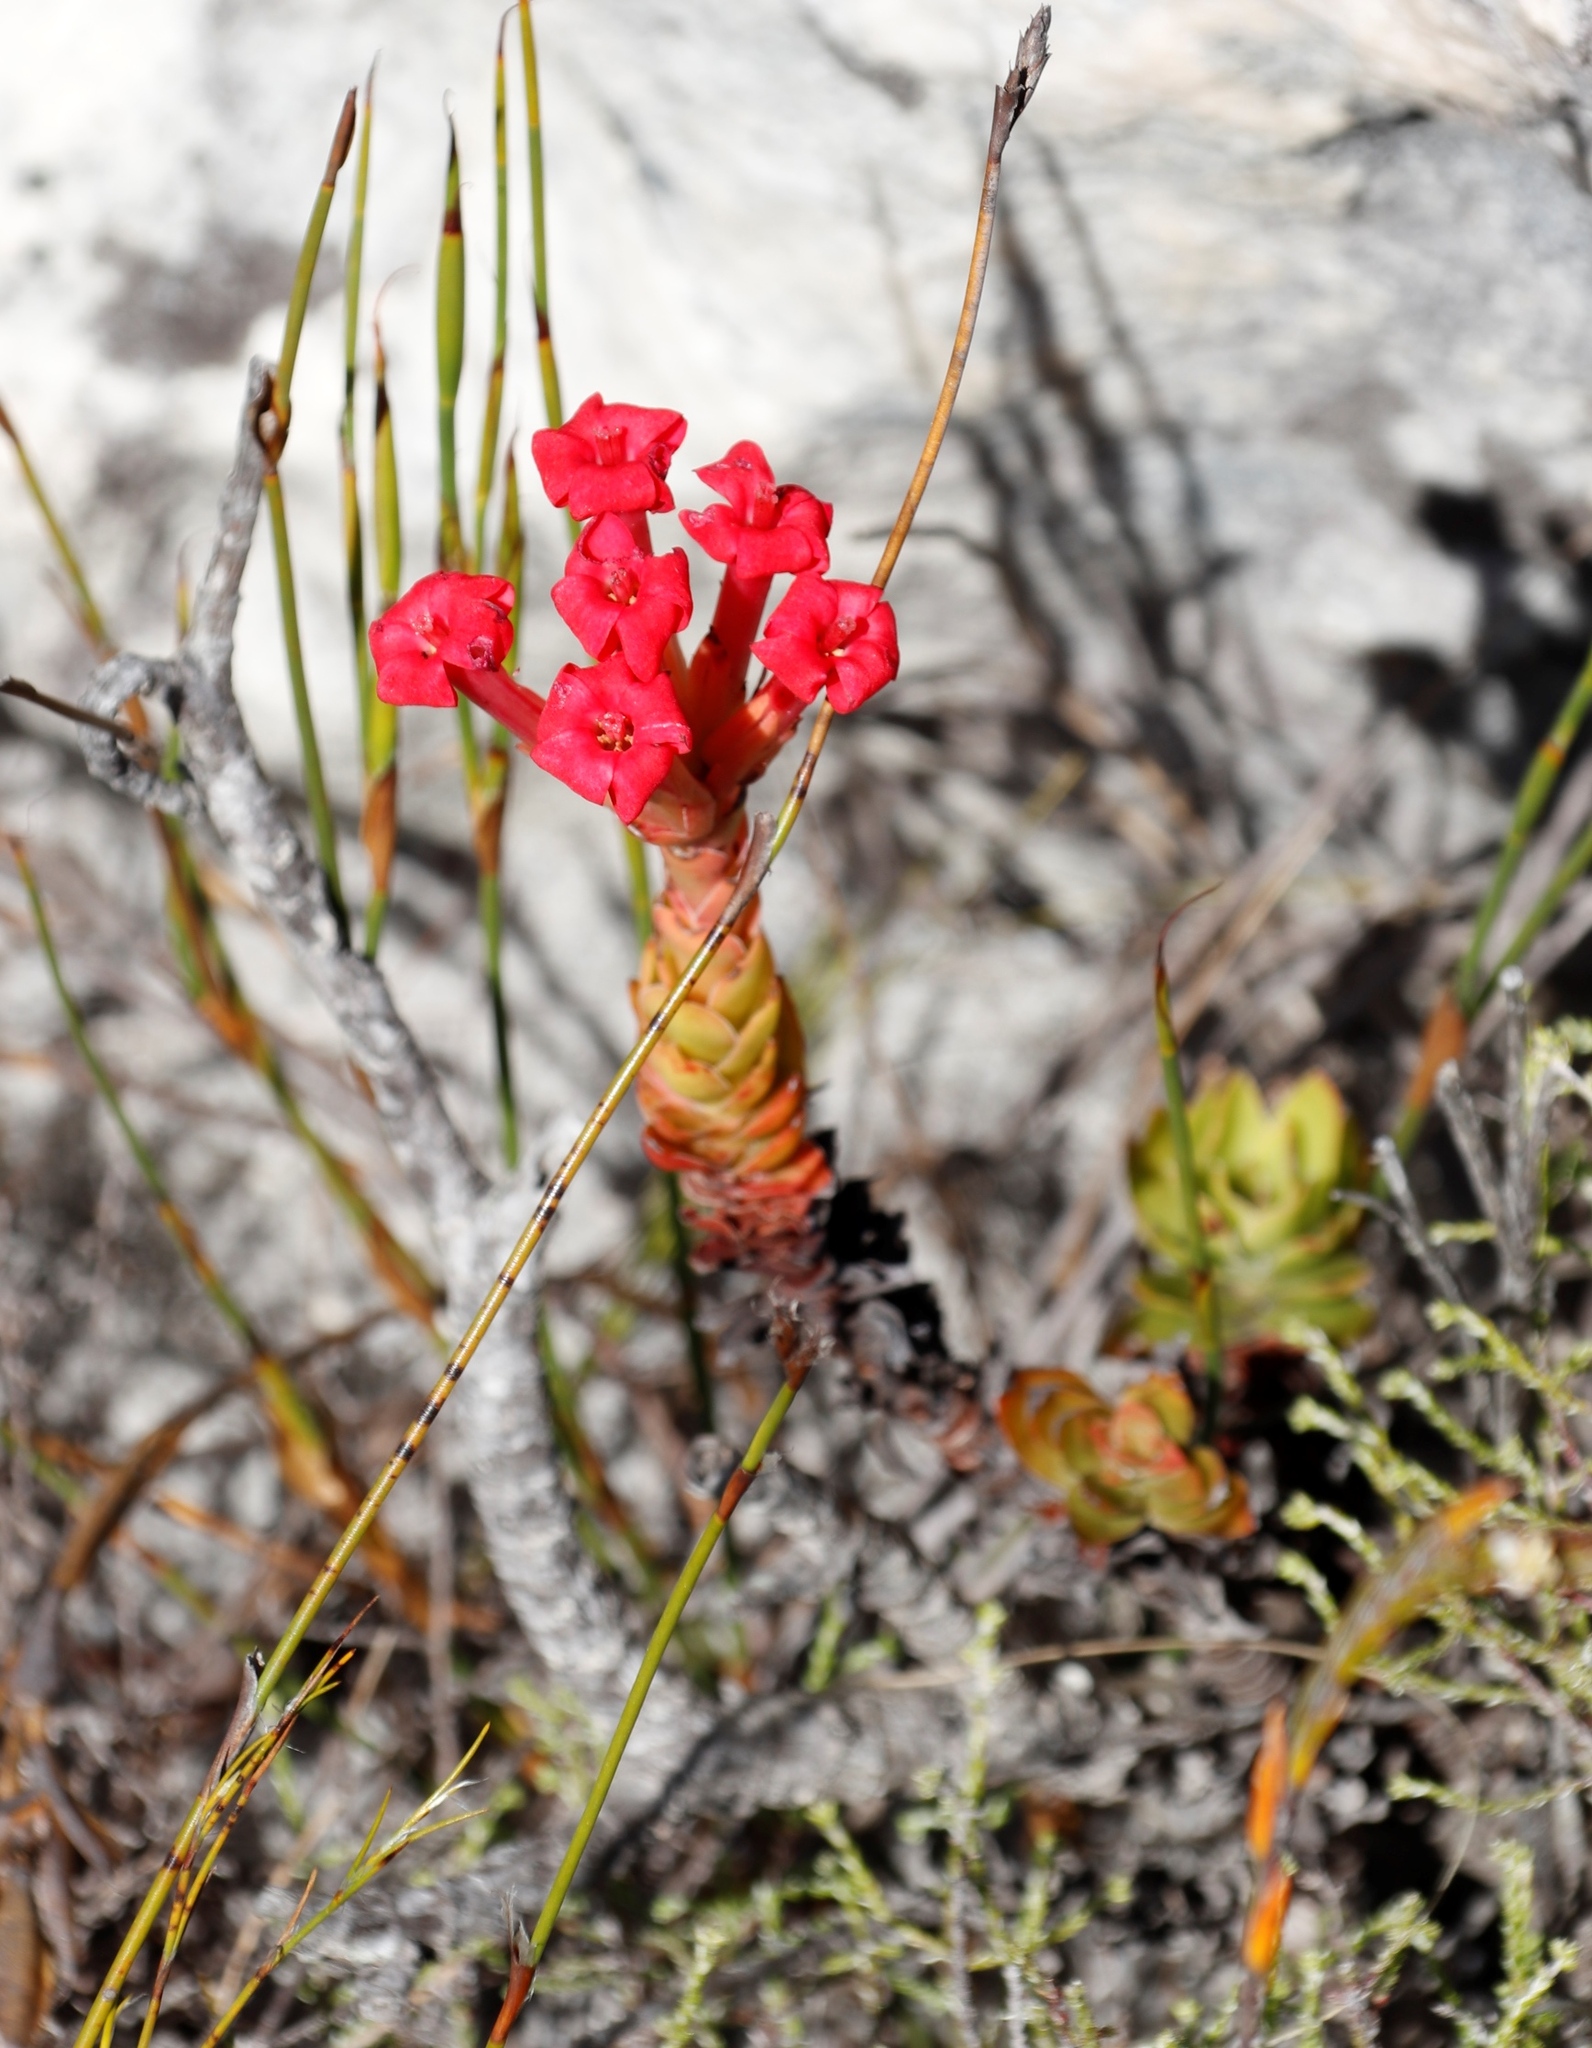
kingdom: Plantae
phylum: Tracheophyta
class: Magnoliopsida
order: Saxifragales
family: Crassulaceae
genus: Crassula
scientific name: Crassula coccinea
